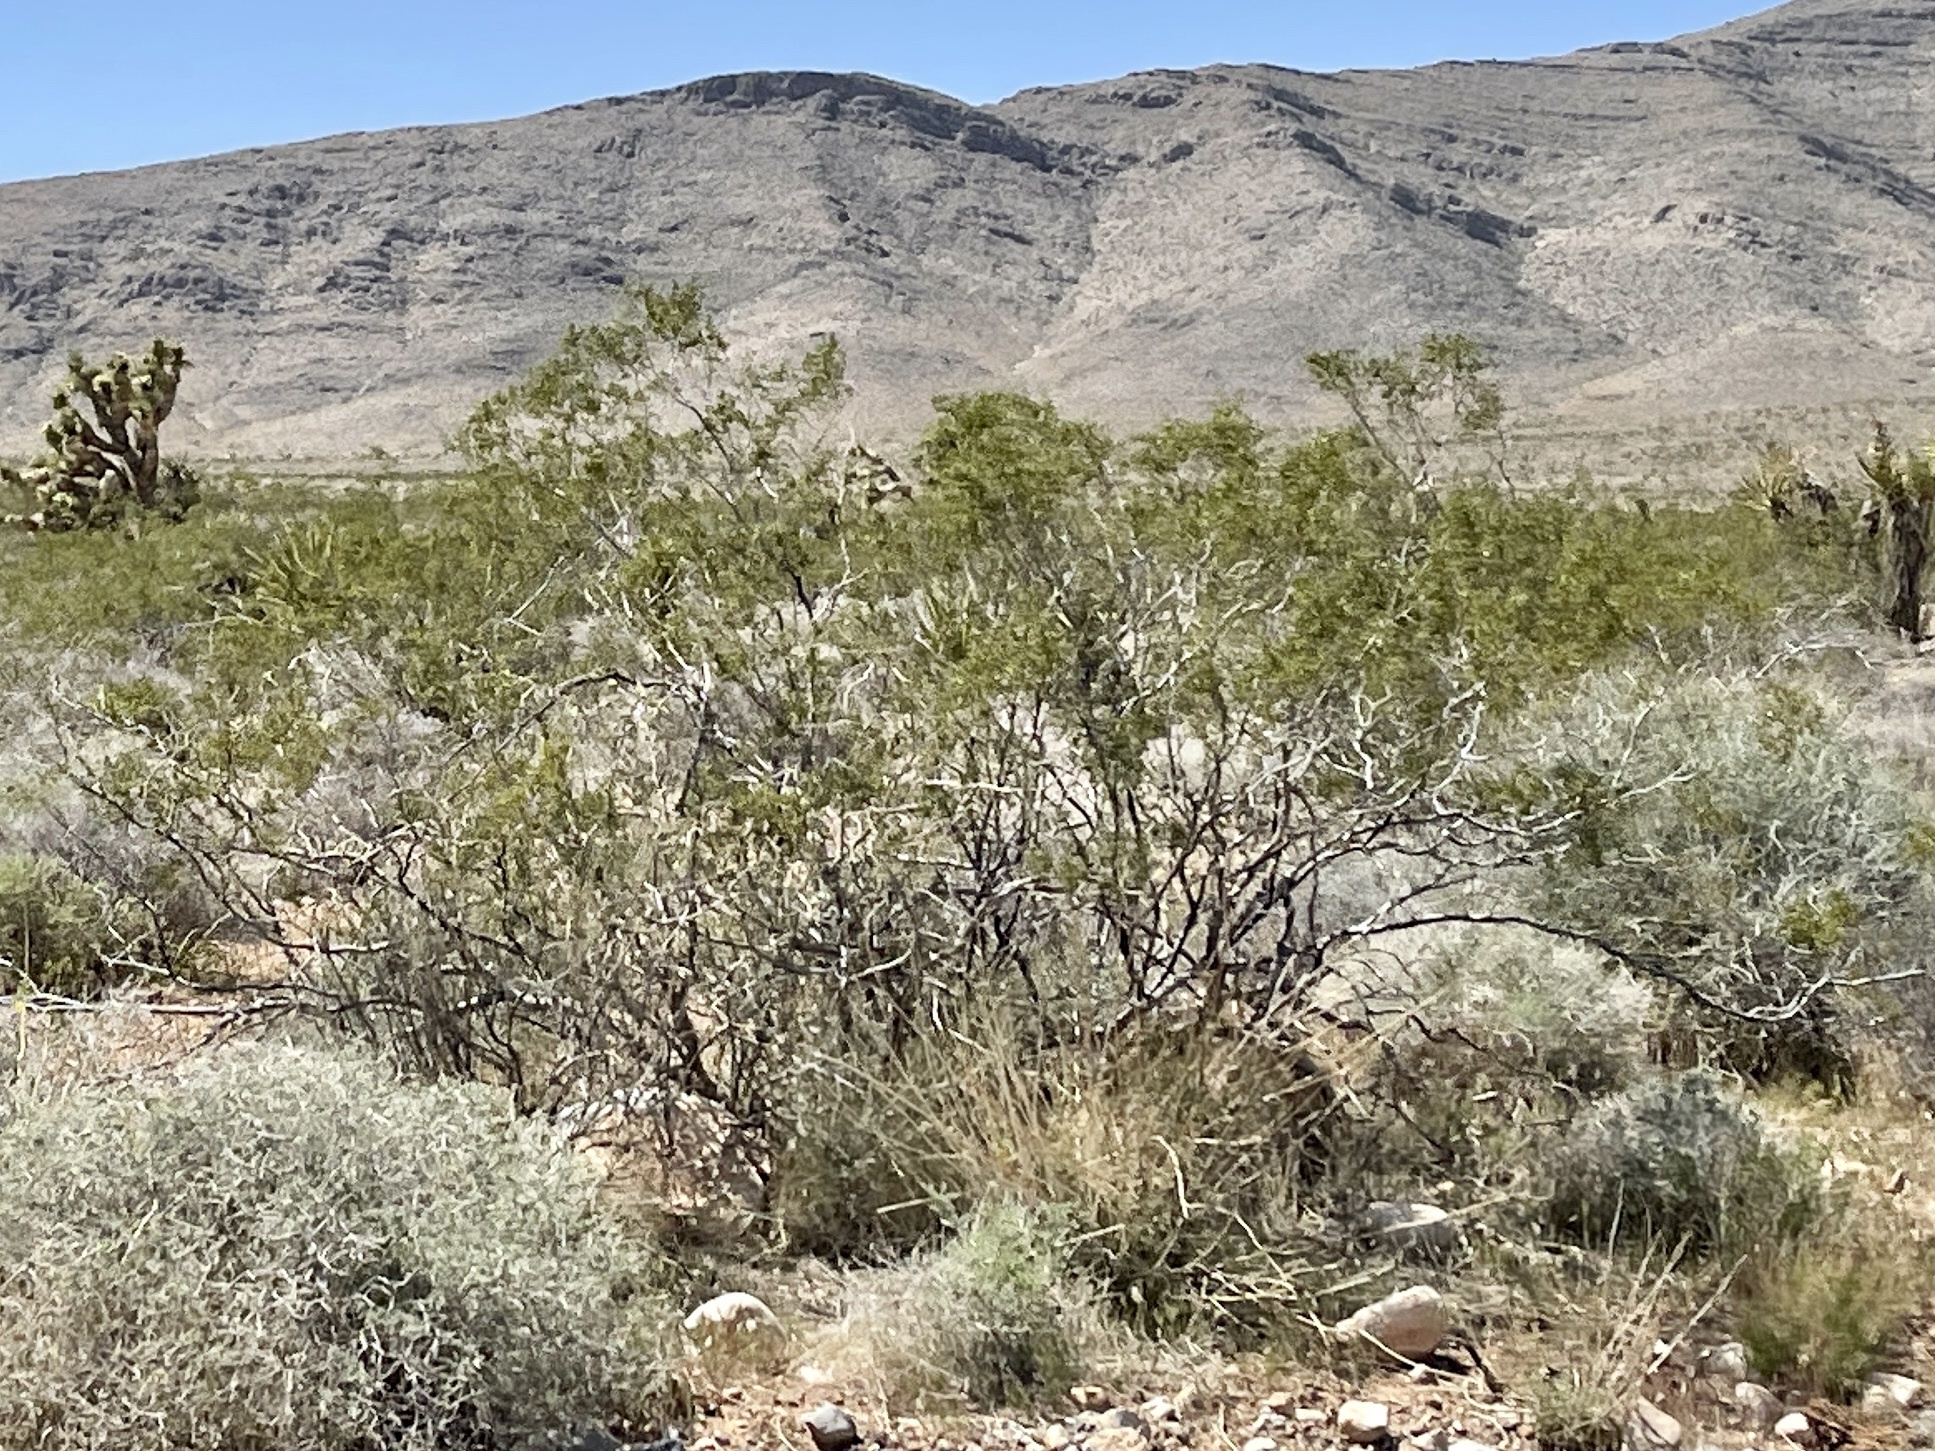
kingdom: Plantae
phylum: Tracheophyta
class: Magnoliopsida
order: Zygophyllales
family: Zygophyllaceae
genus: Larrea
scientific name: Larrea tridentata
